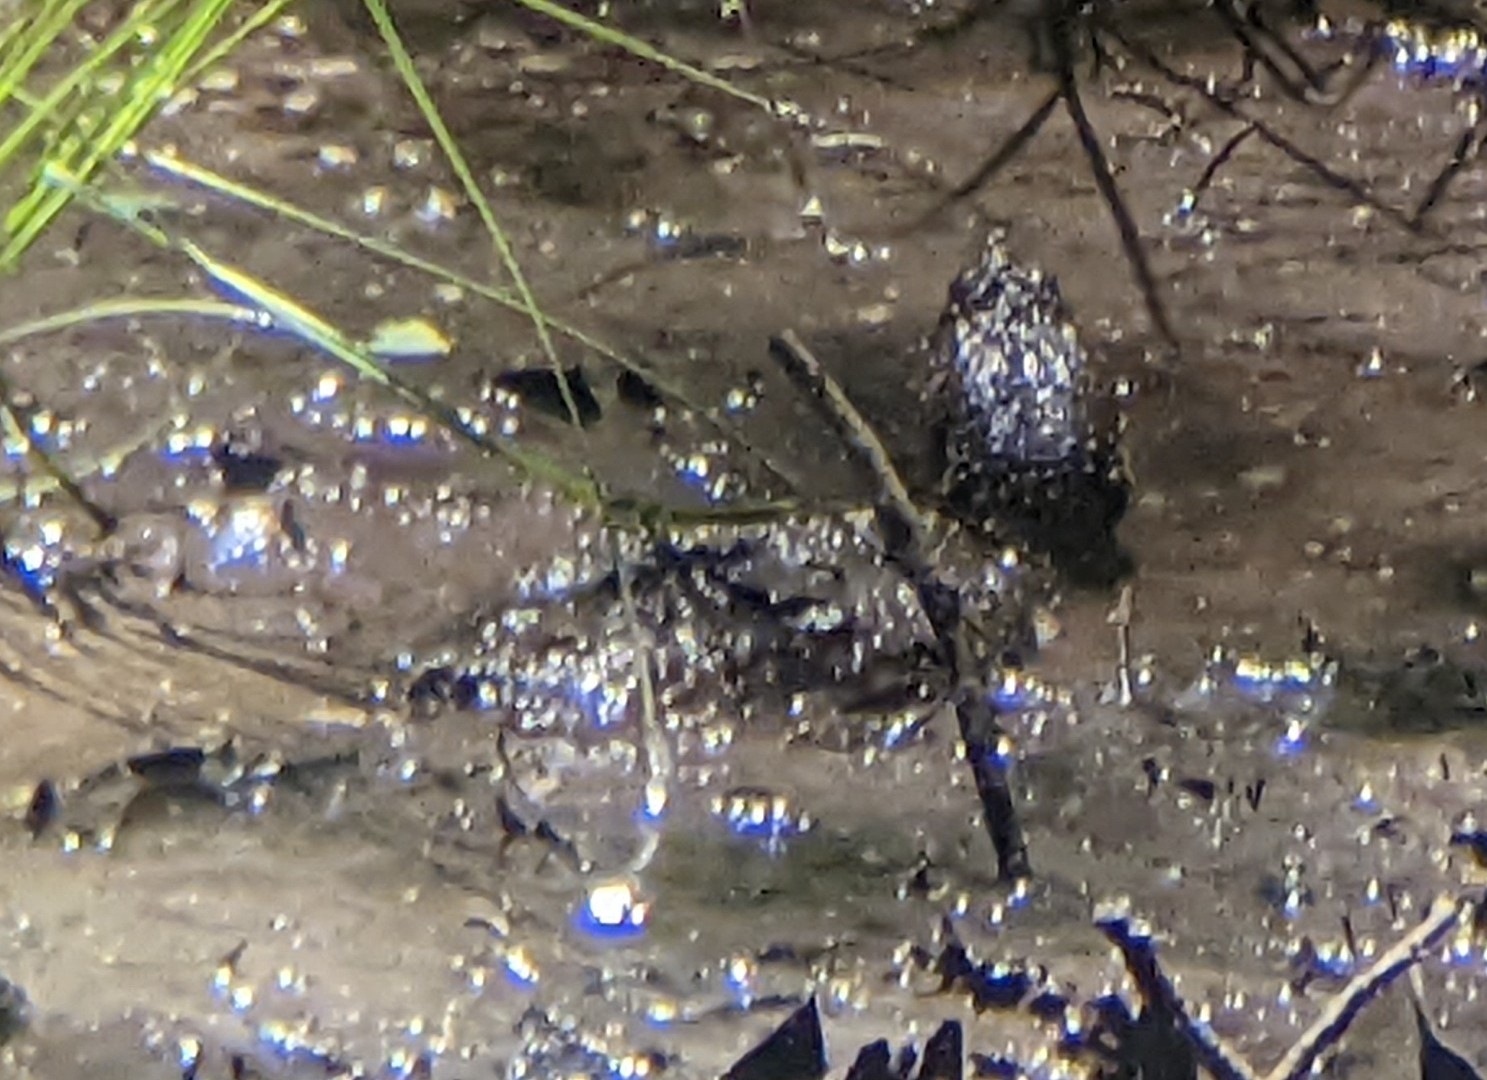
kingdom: Animalia
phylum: Chordata
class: Testudines
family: Chelydridae
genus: Chelydra
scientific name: Chelydra serpentina
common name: Common snapping turtle
